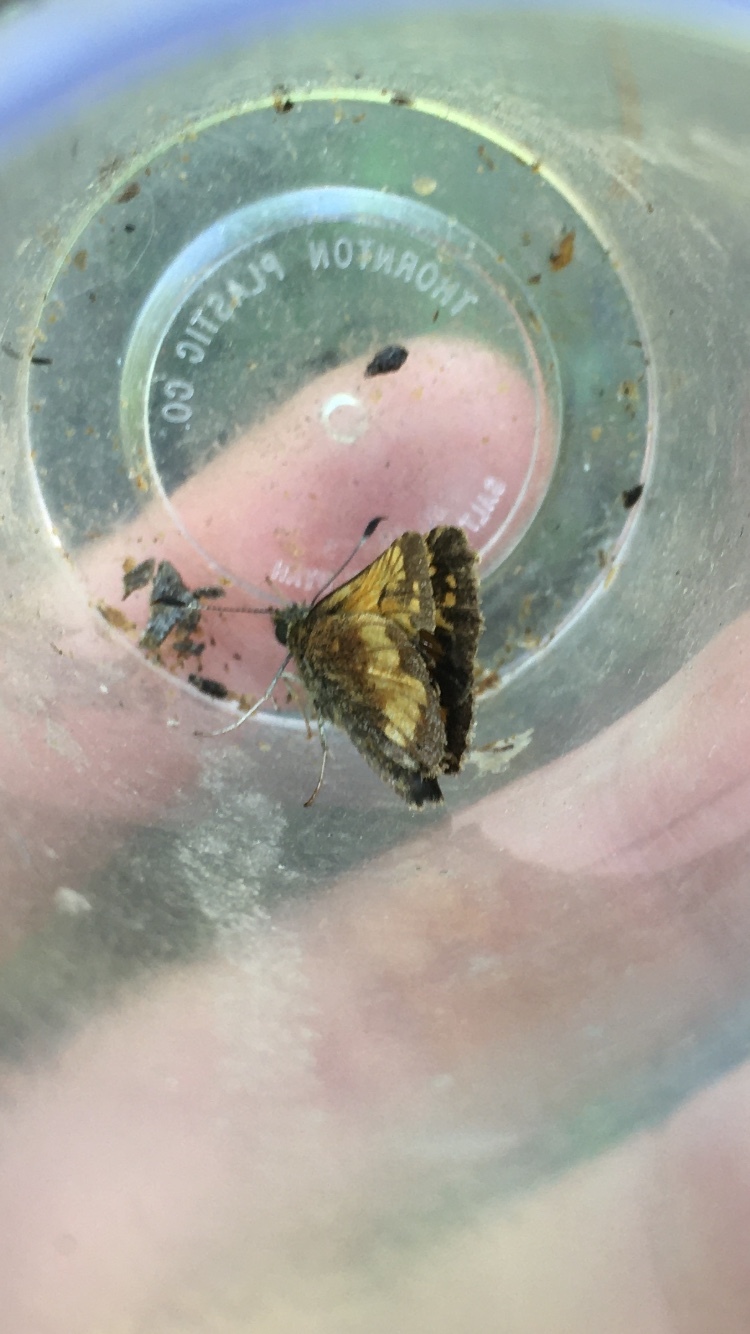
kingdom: Animalia
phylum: Arthropoda
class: Insecta
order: Lepidoptera
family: Hesperiidae
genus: Lon
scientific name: Lon hobomok
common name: Hobomok skipper
